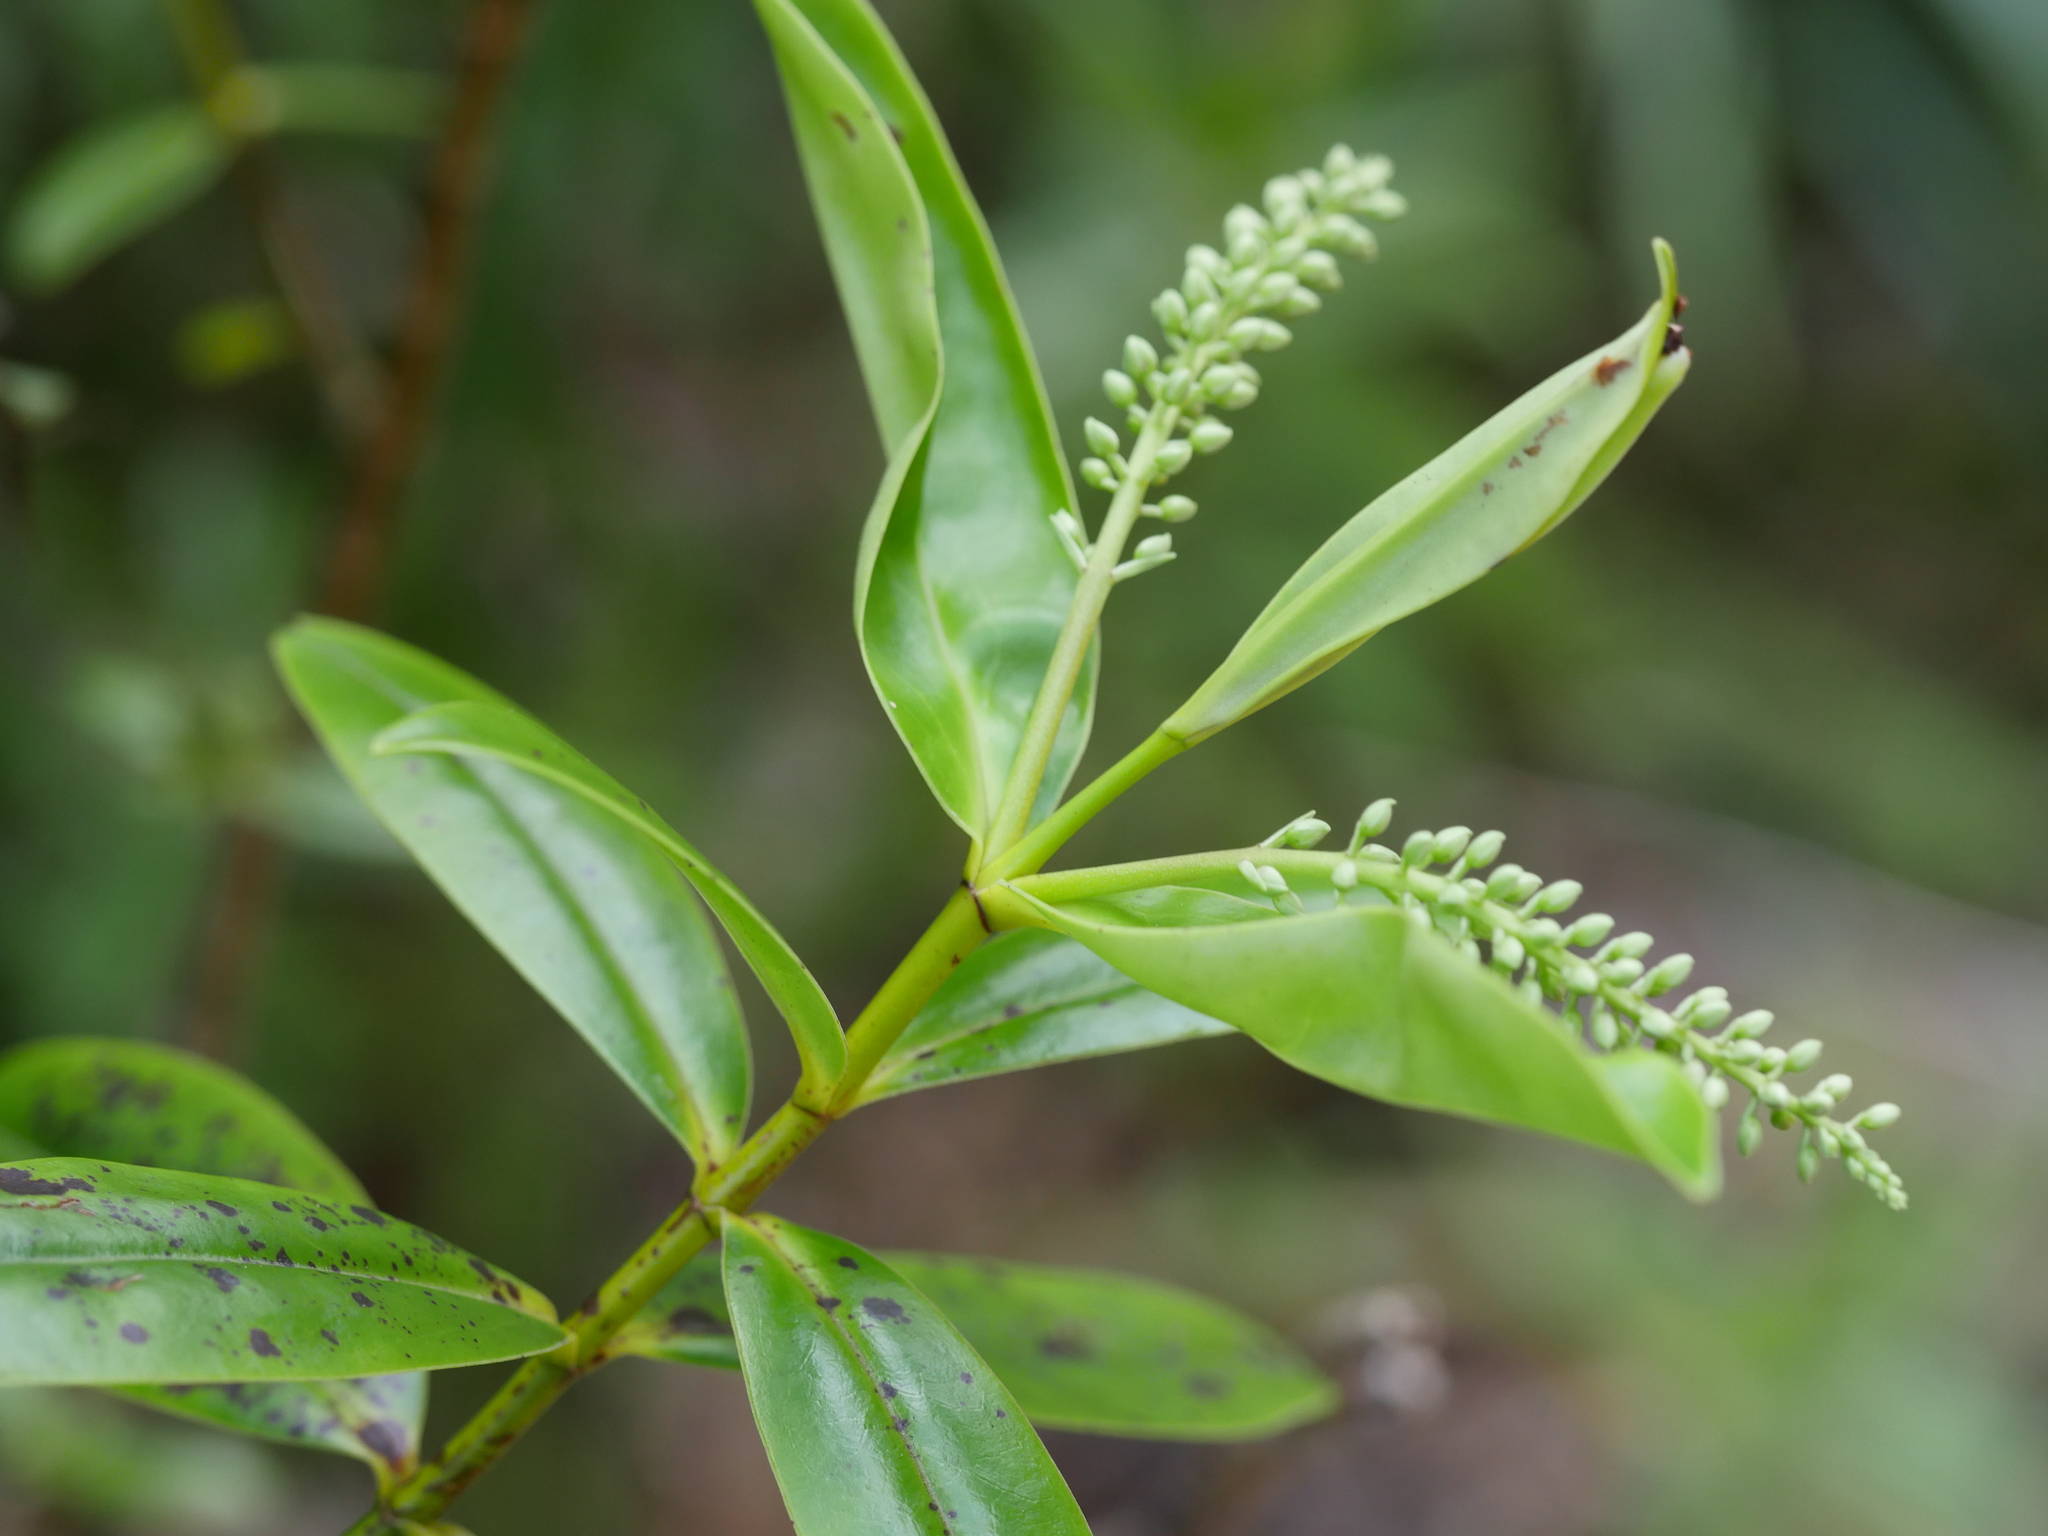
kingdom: Plantae
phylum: Tracheophyta
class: Magnoliopsida
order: Lamiales
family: Plantaginaceae
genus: Veronica
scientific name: Veronica macrocarpa
